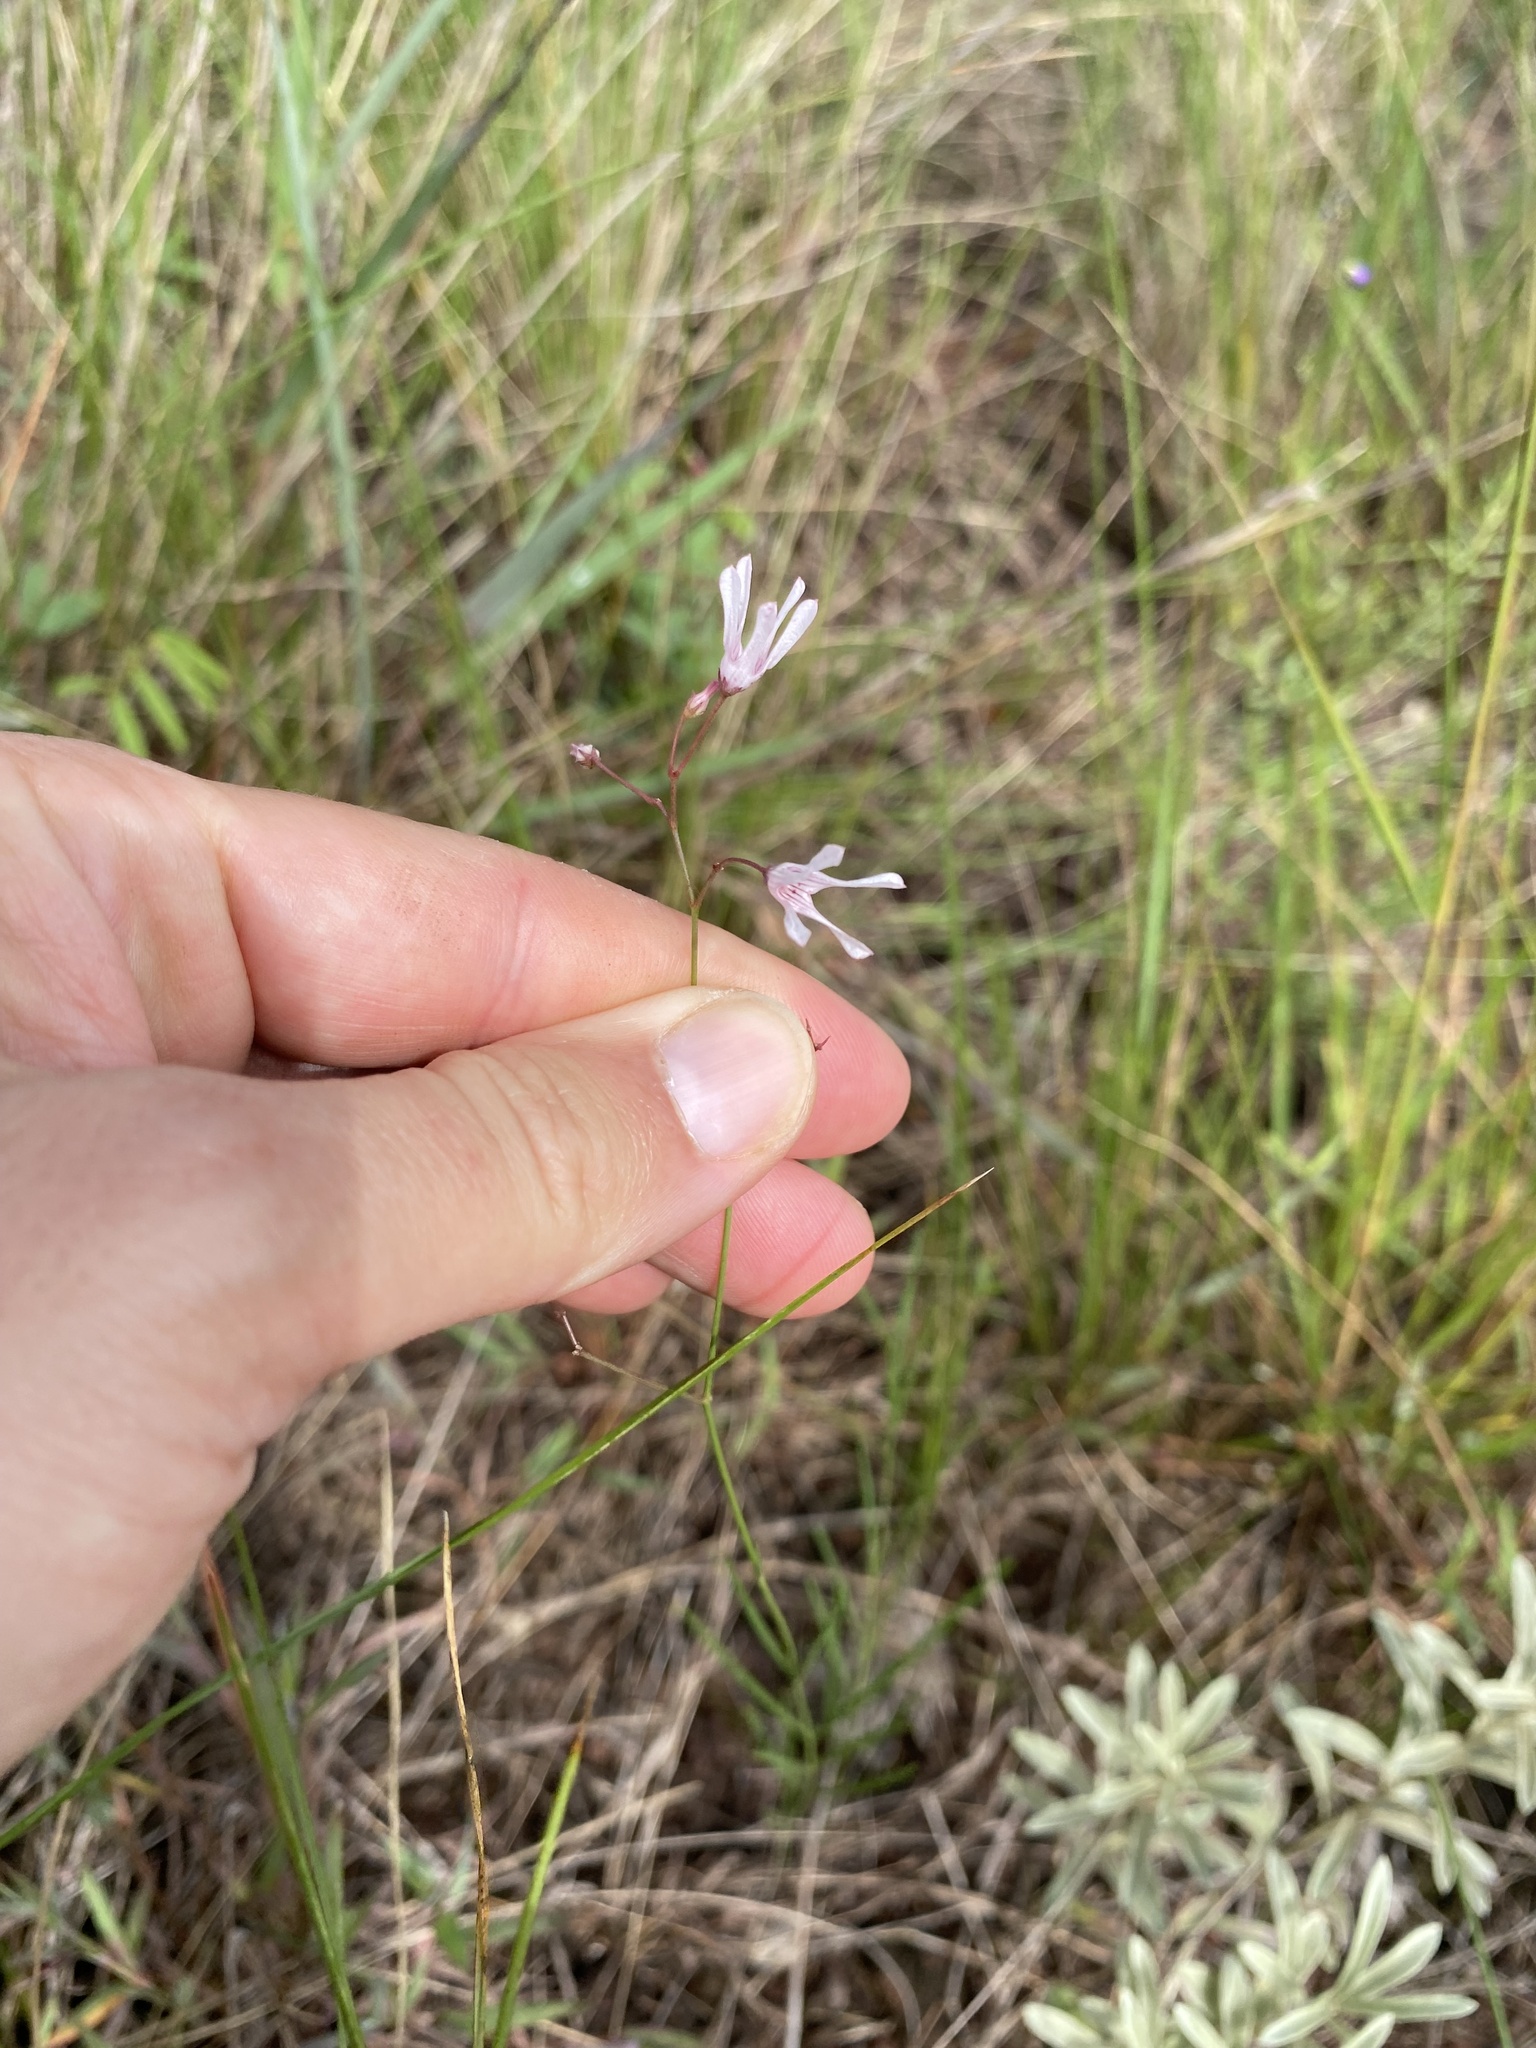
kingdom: Plantae
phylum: Tracheophyta
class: Magnoliopsida
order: Gentianales
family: Apocynaceae
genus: Ceropegia
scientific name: Ceropegia rubella
